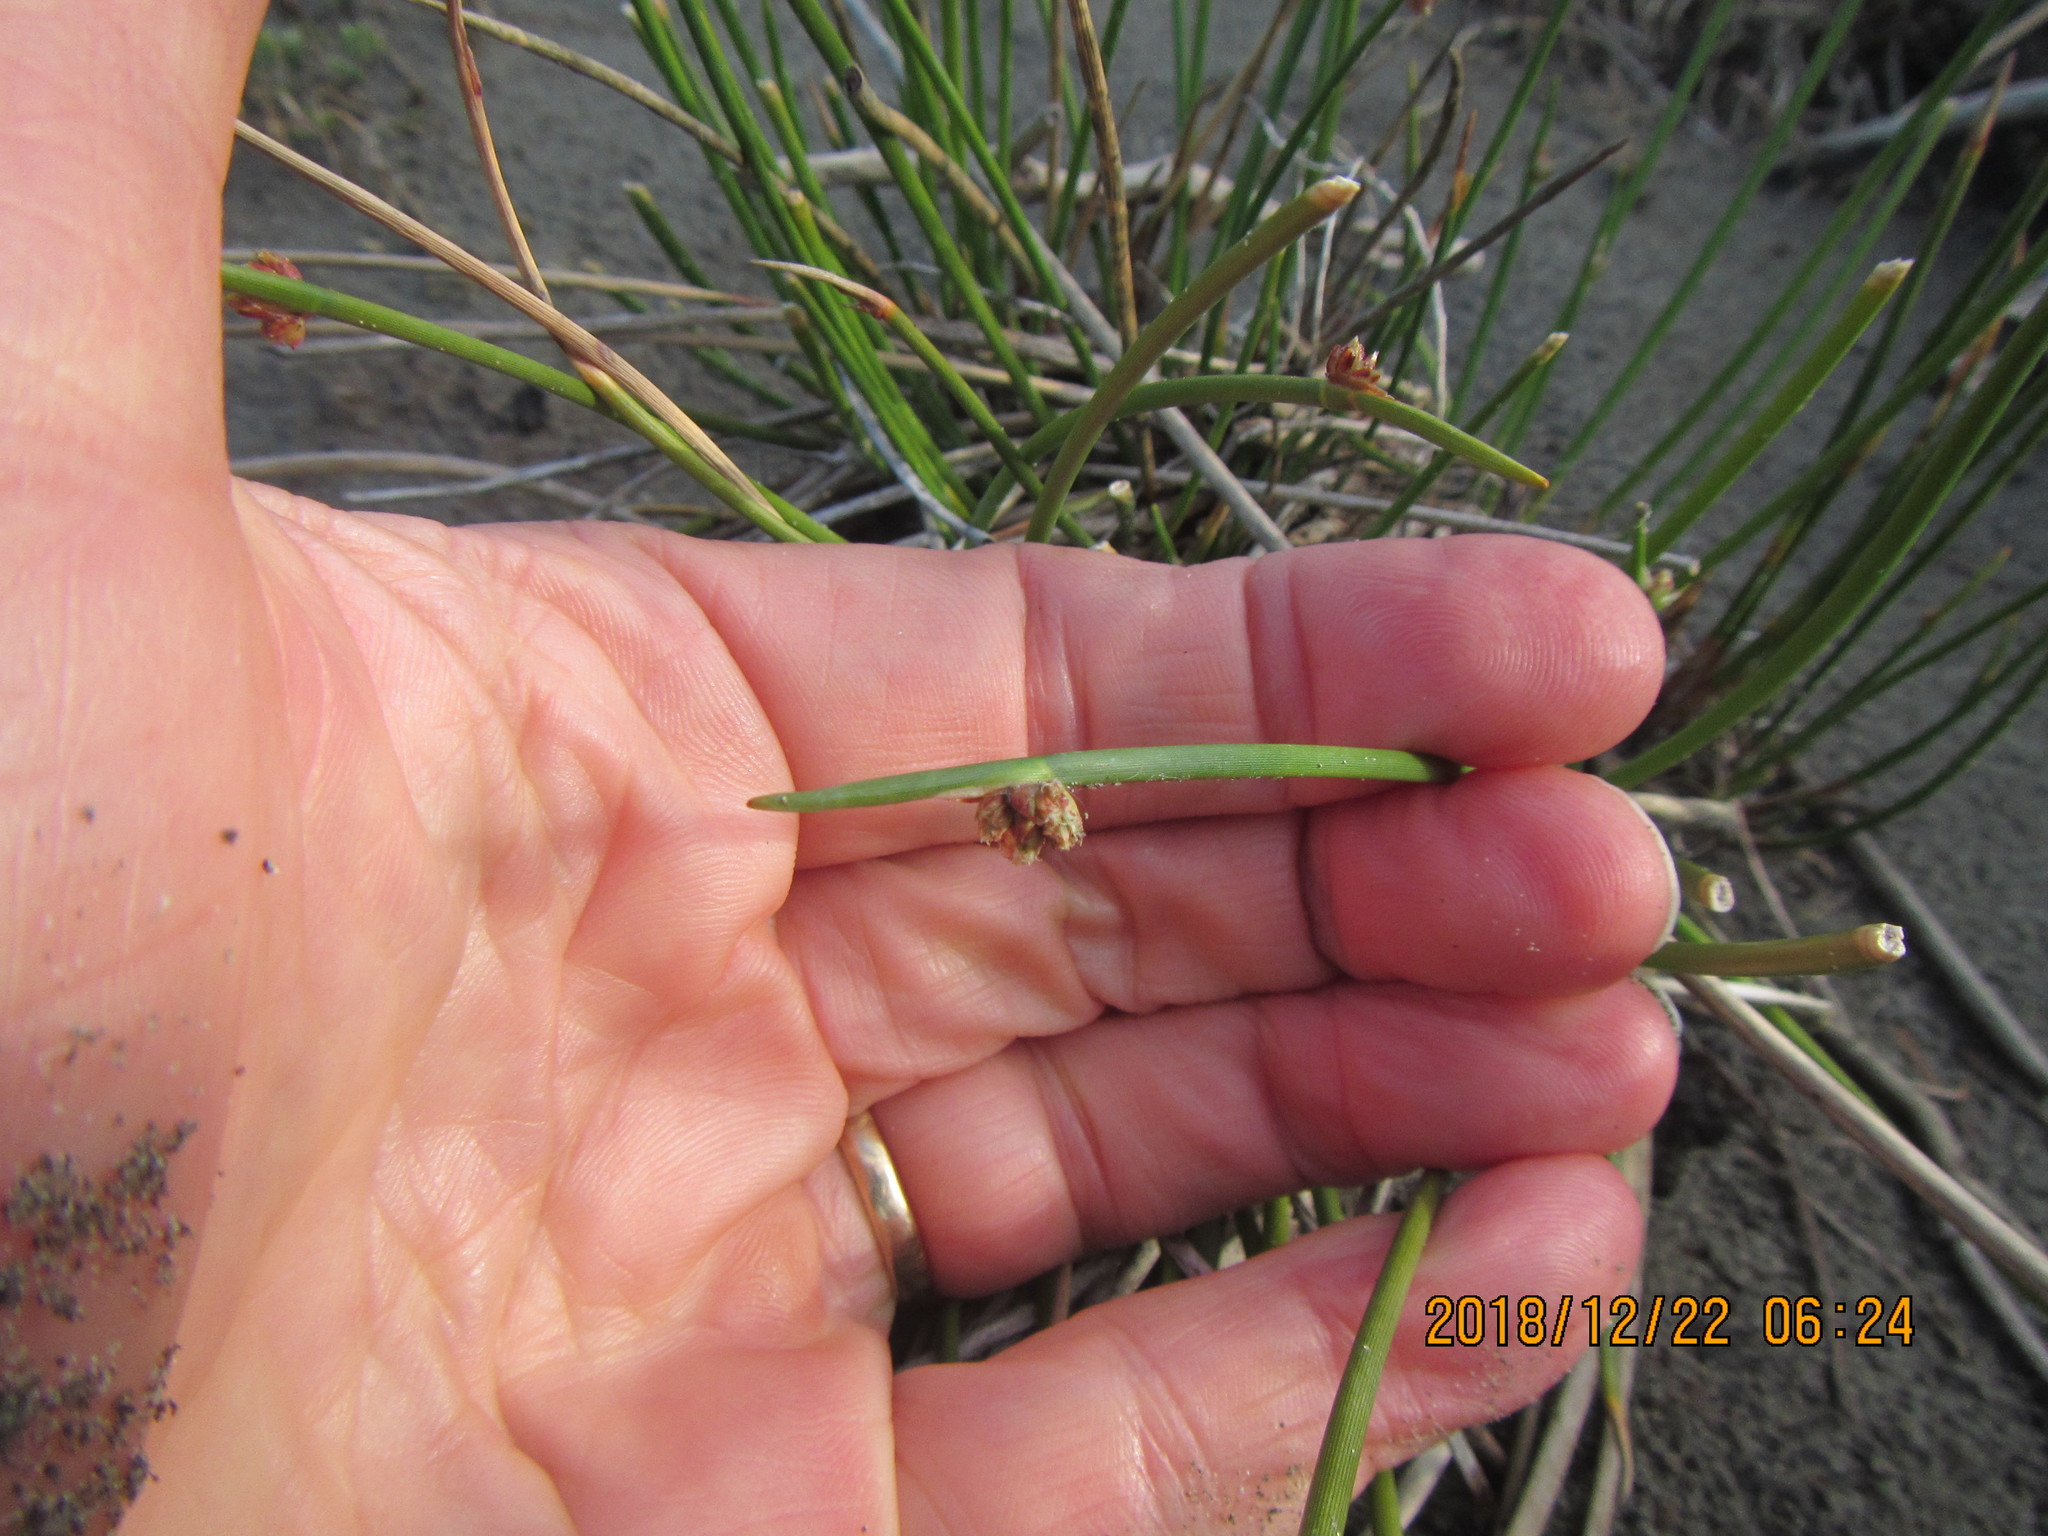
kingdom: Plantae
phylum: Tracheophyta
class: Liliopsida
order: Poales
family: Cyperaceae
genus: Ficinia
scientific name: Ficinia nodosa
